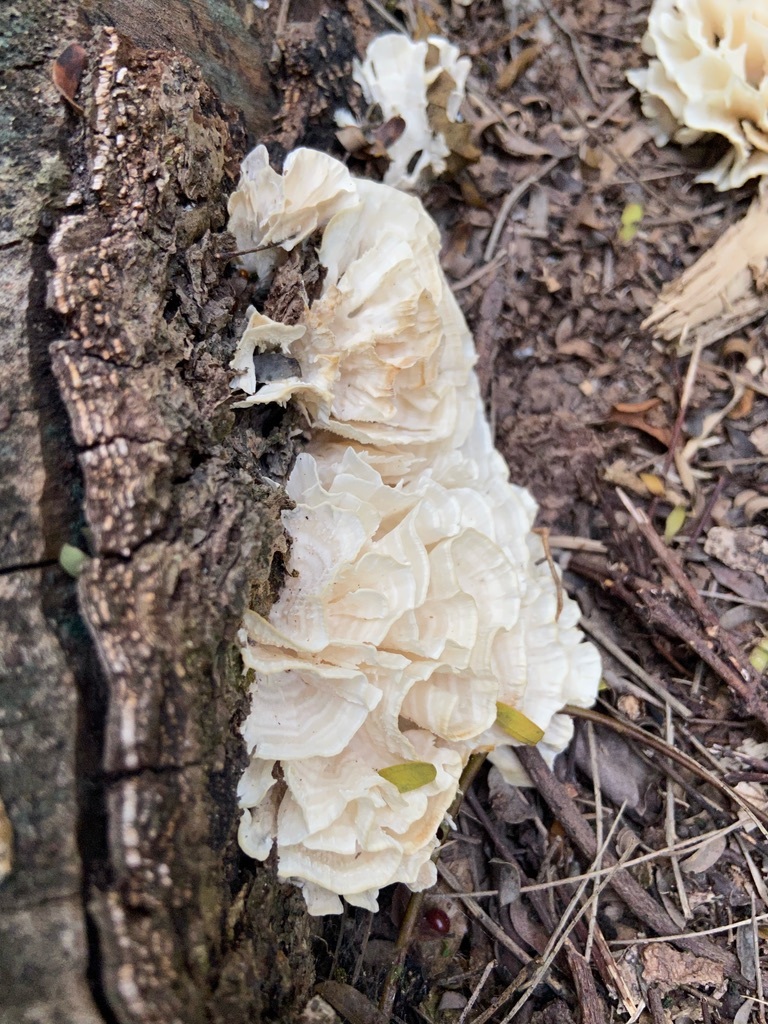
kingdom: Fungi
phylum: Basidiomycota
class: Agaricomycetes
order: Polyporales
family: Irpicaceae
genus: Irpex
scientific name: Irpex rosettiformis
